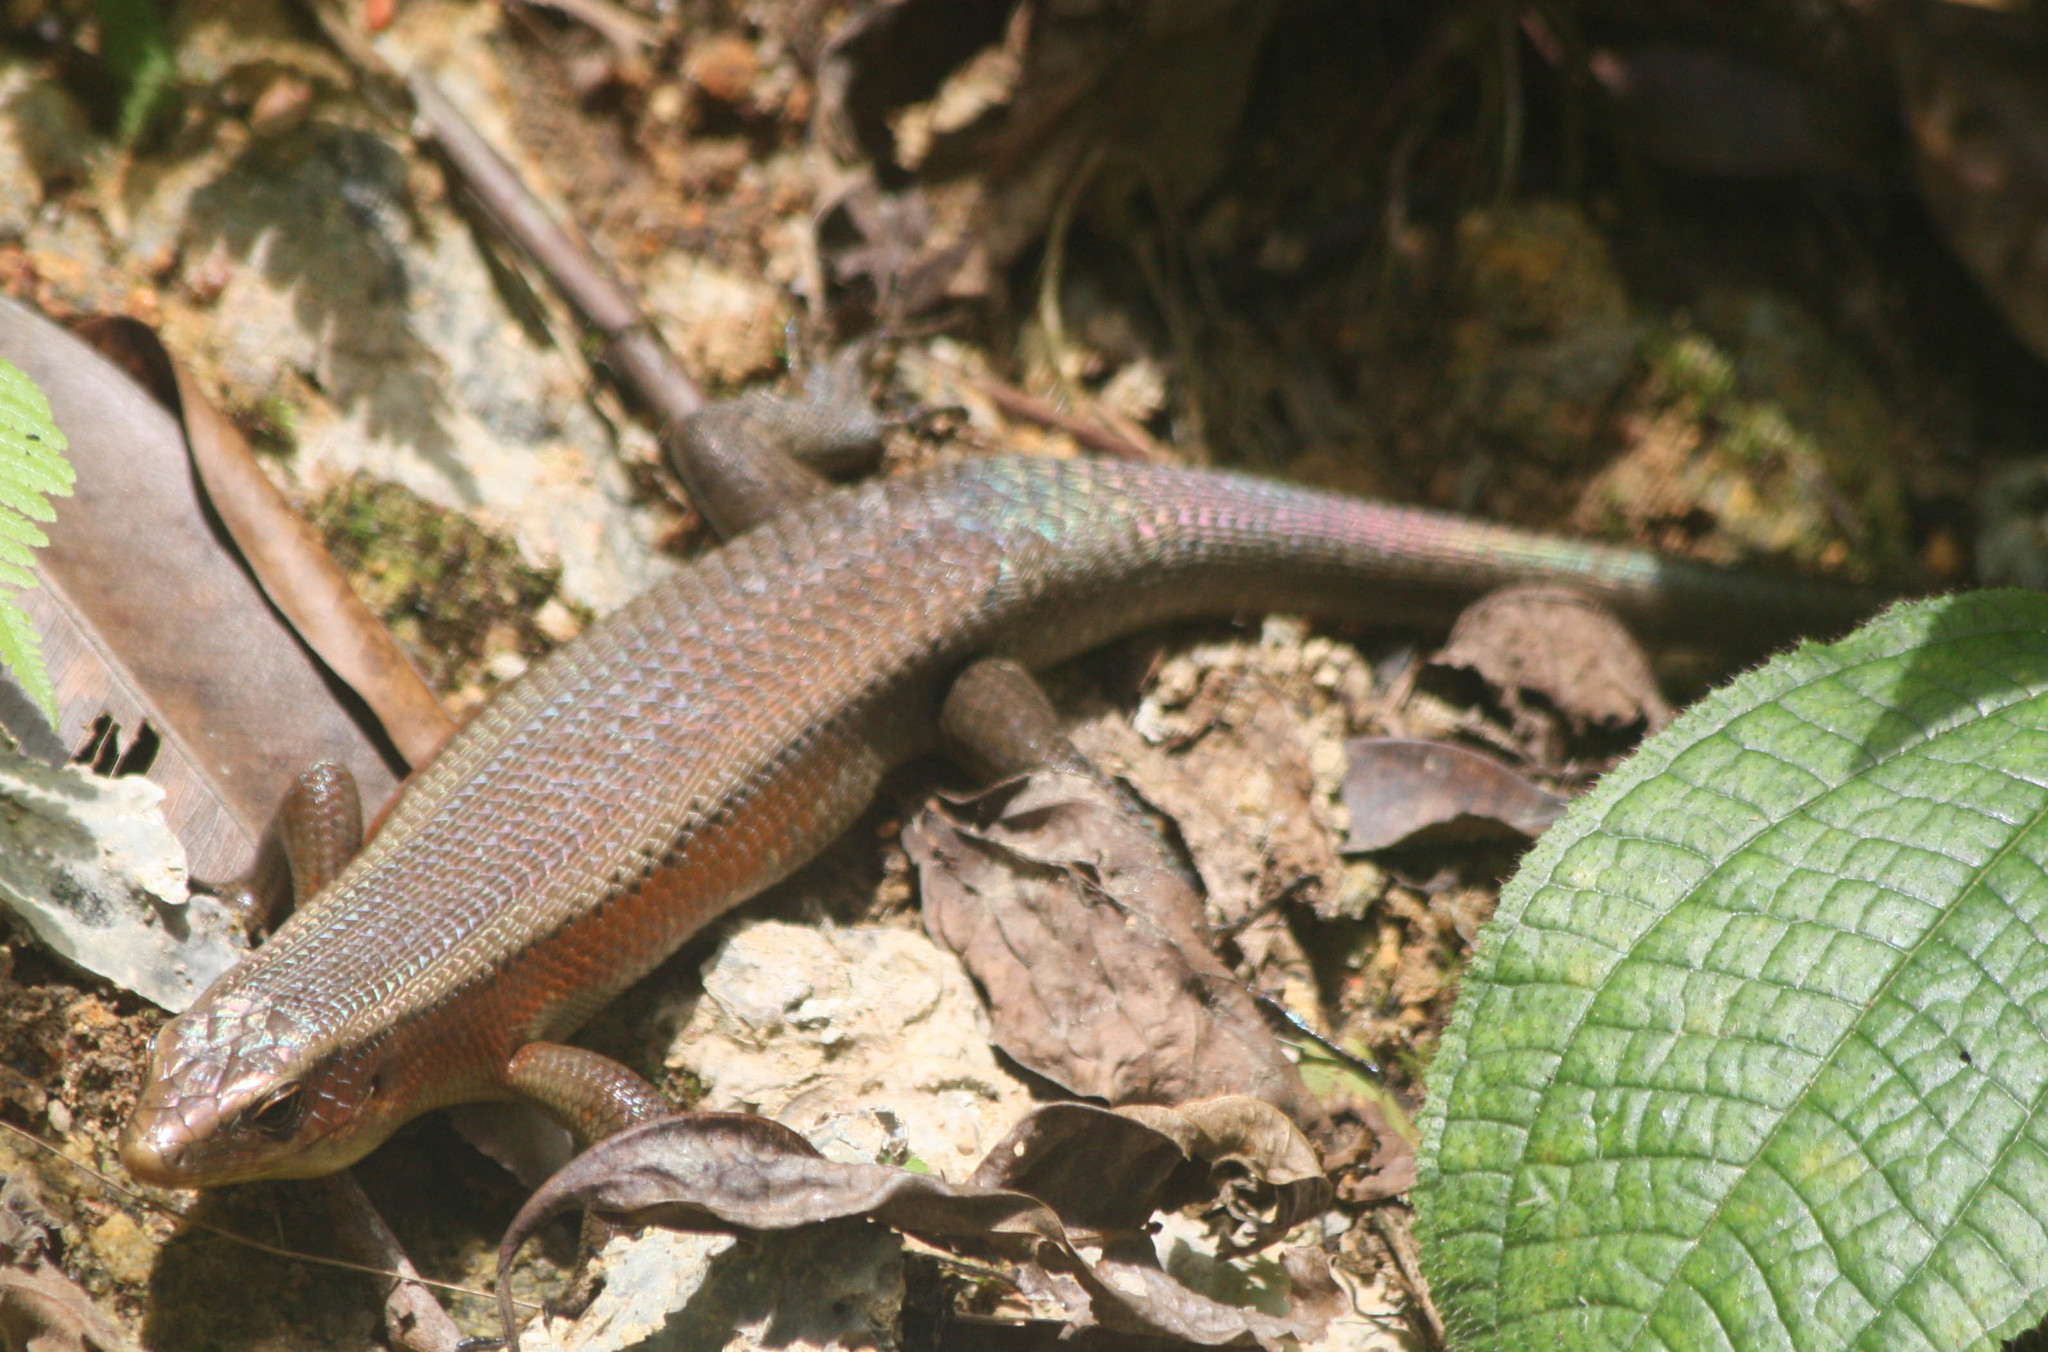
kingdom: Animalia
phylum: Chordata
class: Squamata
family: Scincidae
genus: Eutropis
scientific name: Eutropis multifasciata
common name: Common mabuya
